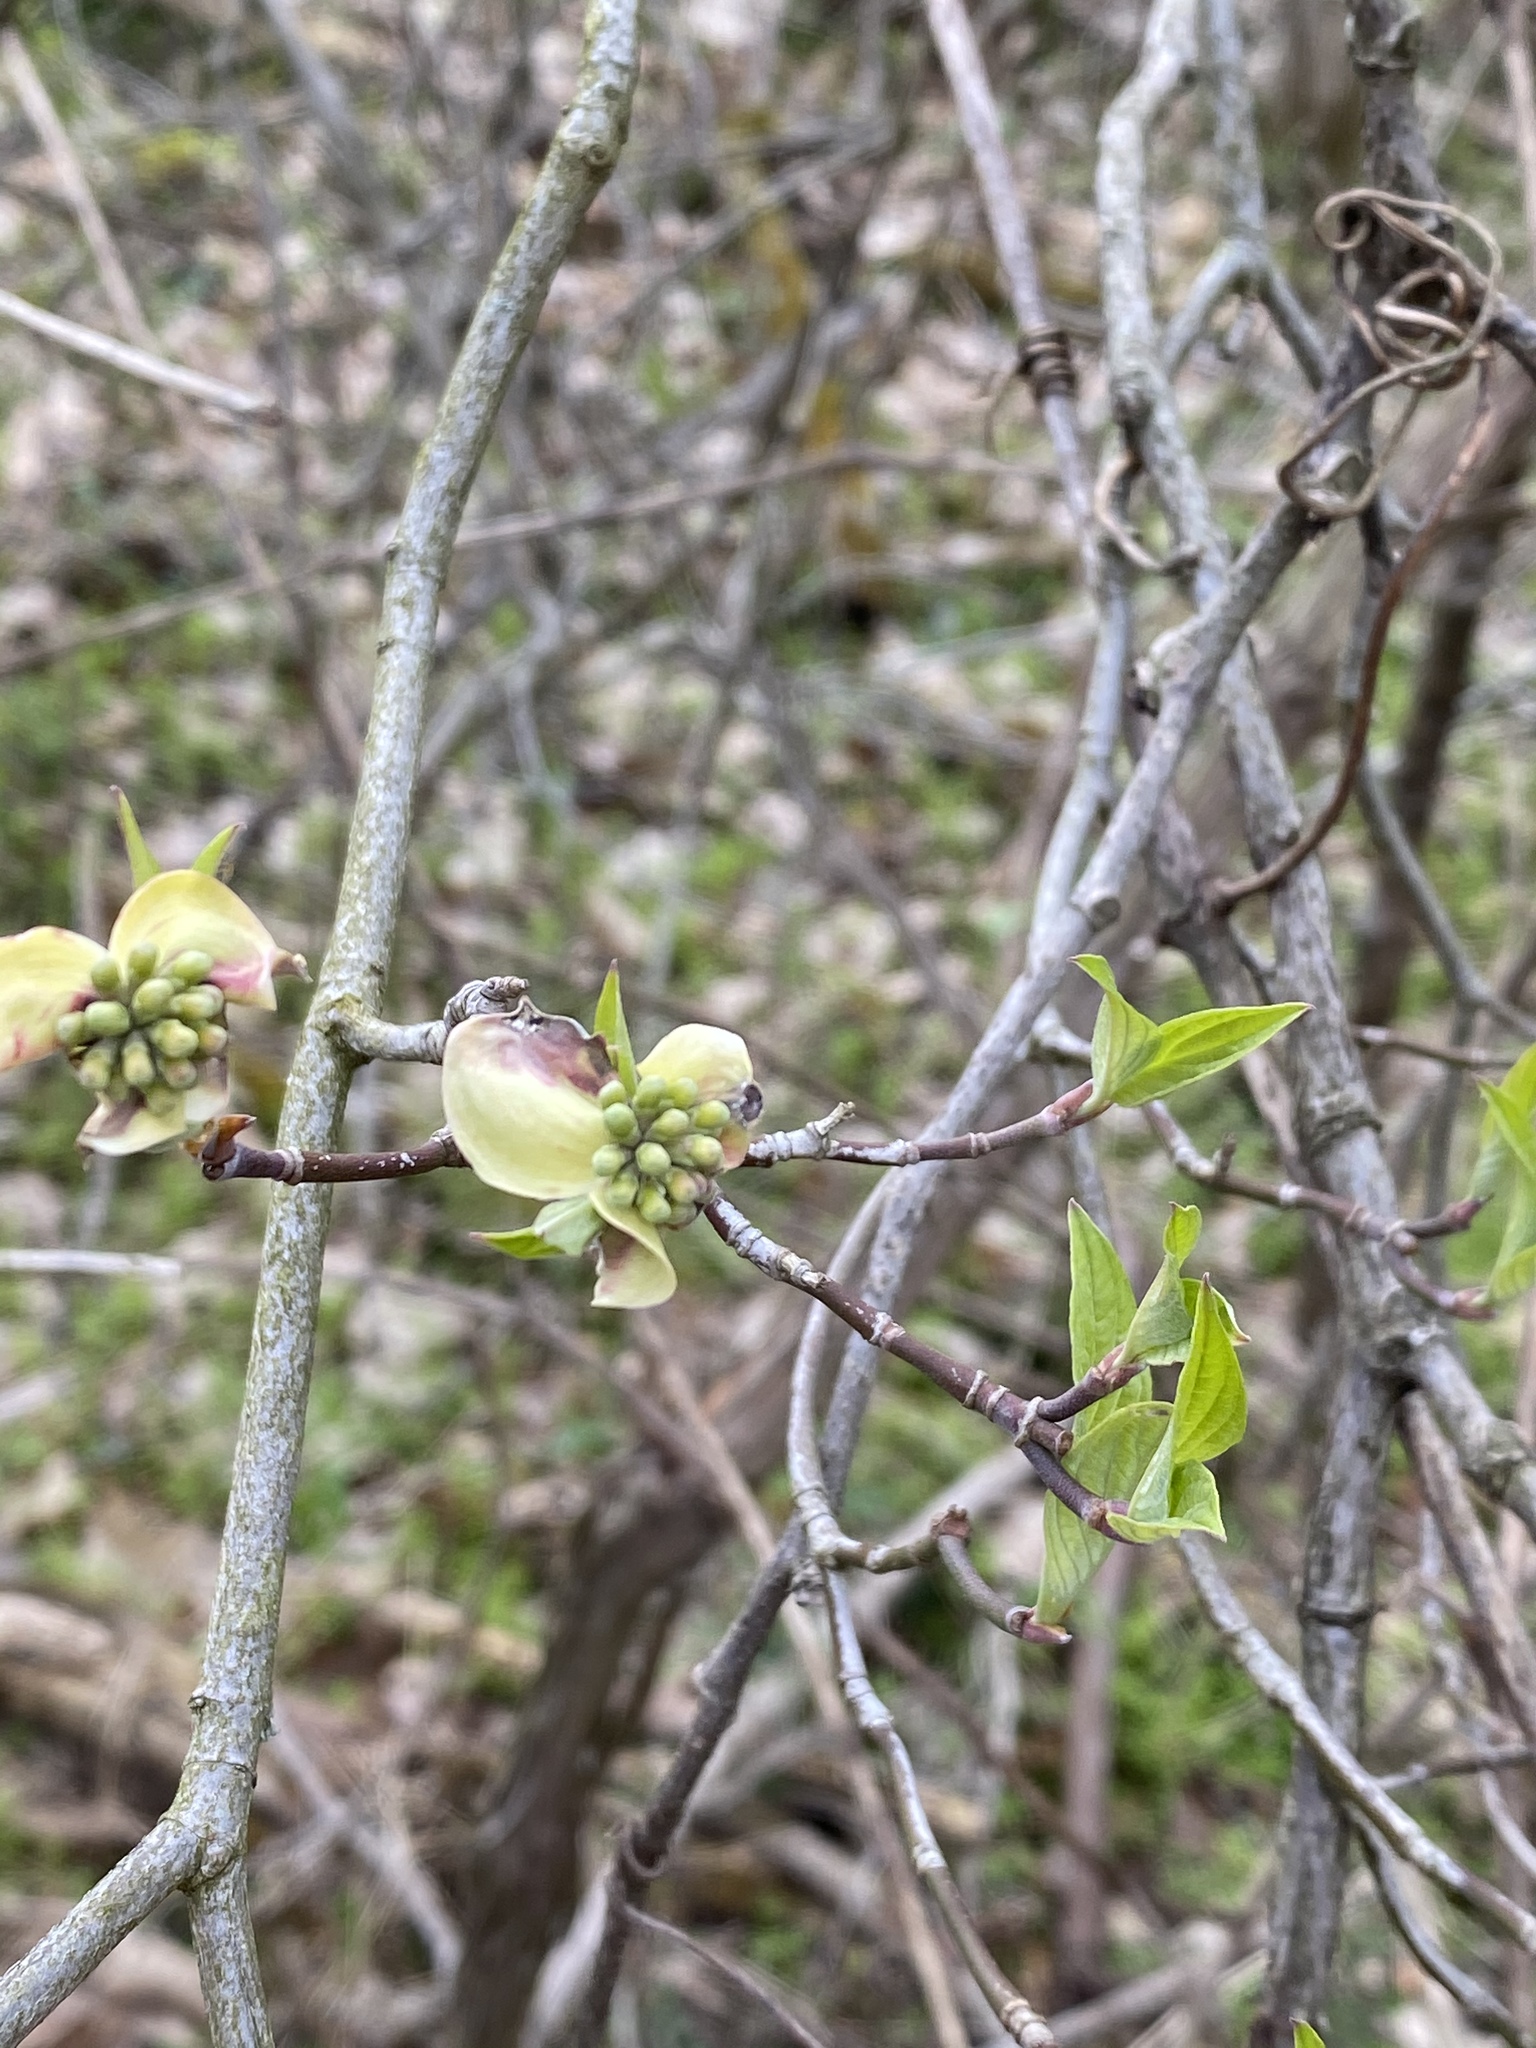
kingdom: Plantae
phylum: Tracheophyta
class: Magnoliopsida
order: Cornales
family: Cornaceae
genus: Cornus
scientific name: Cornus florida
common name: Flowering dogwood
